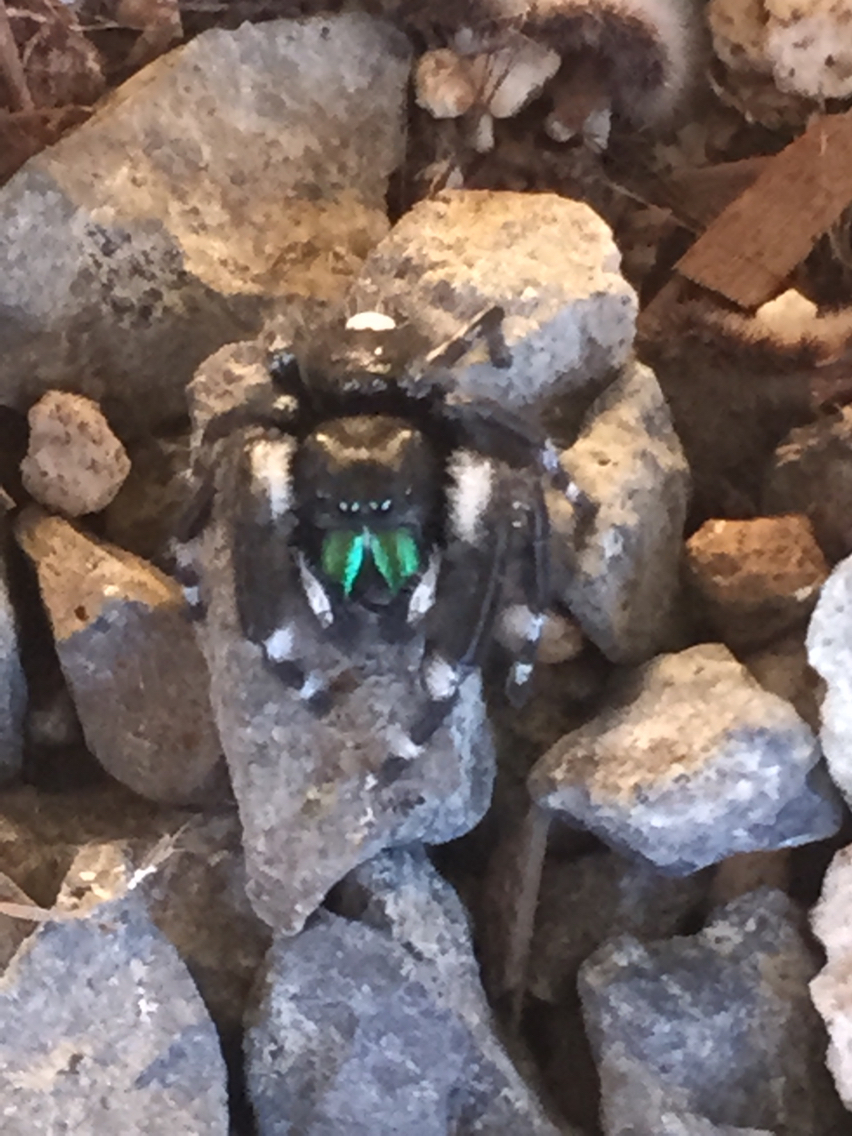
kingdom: Animalia
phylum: Arthropoda
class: Arachnida
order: Araneae
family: Salticidae
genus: Phidippus
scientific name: Phidippus audax
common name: Bold jumper
